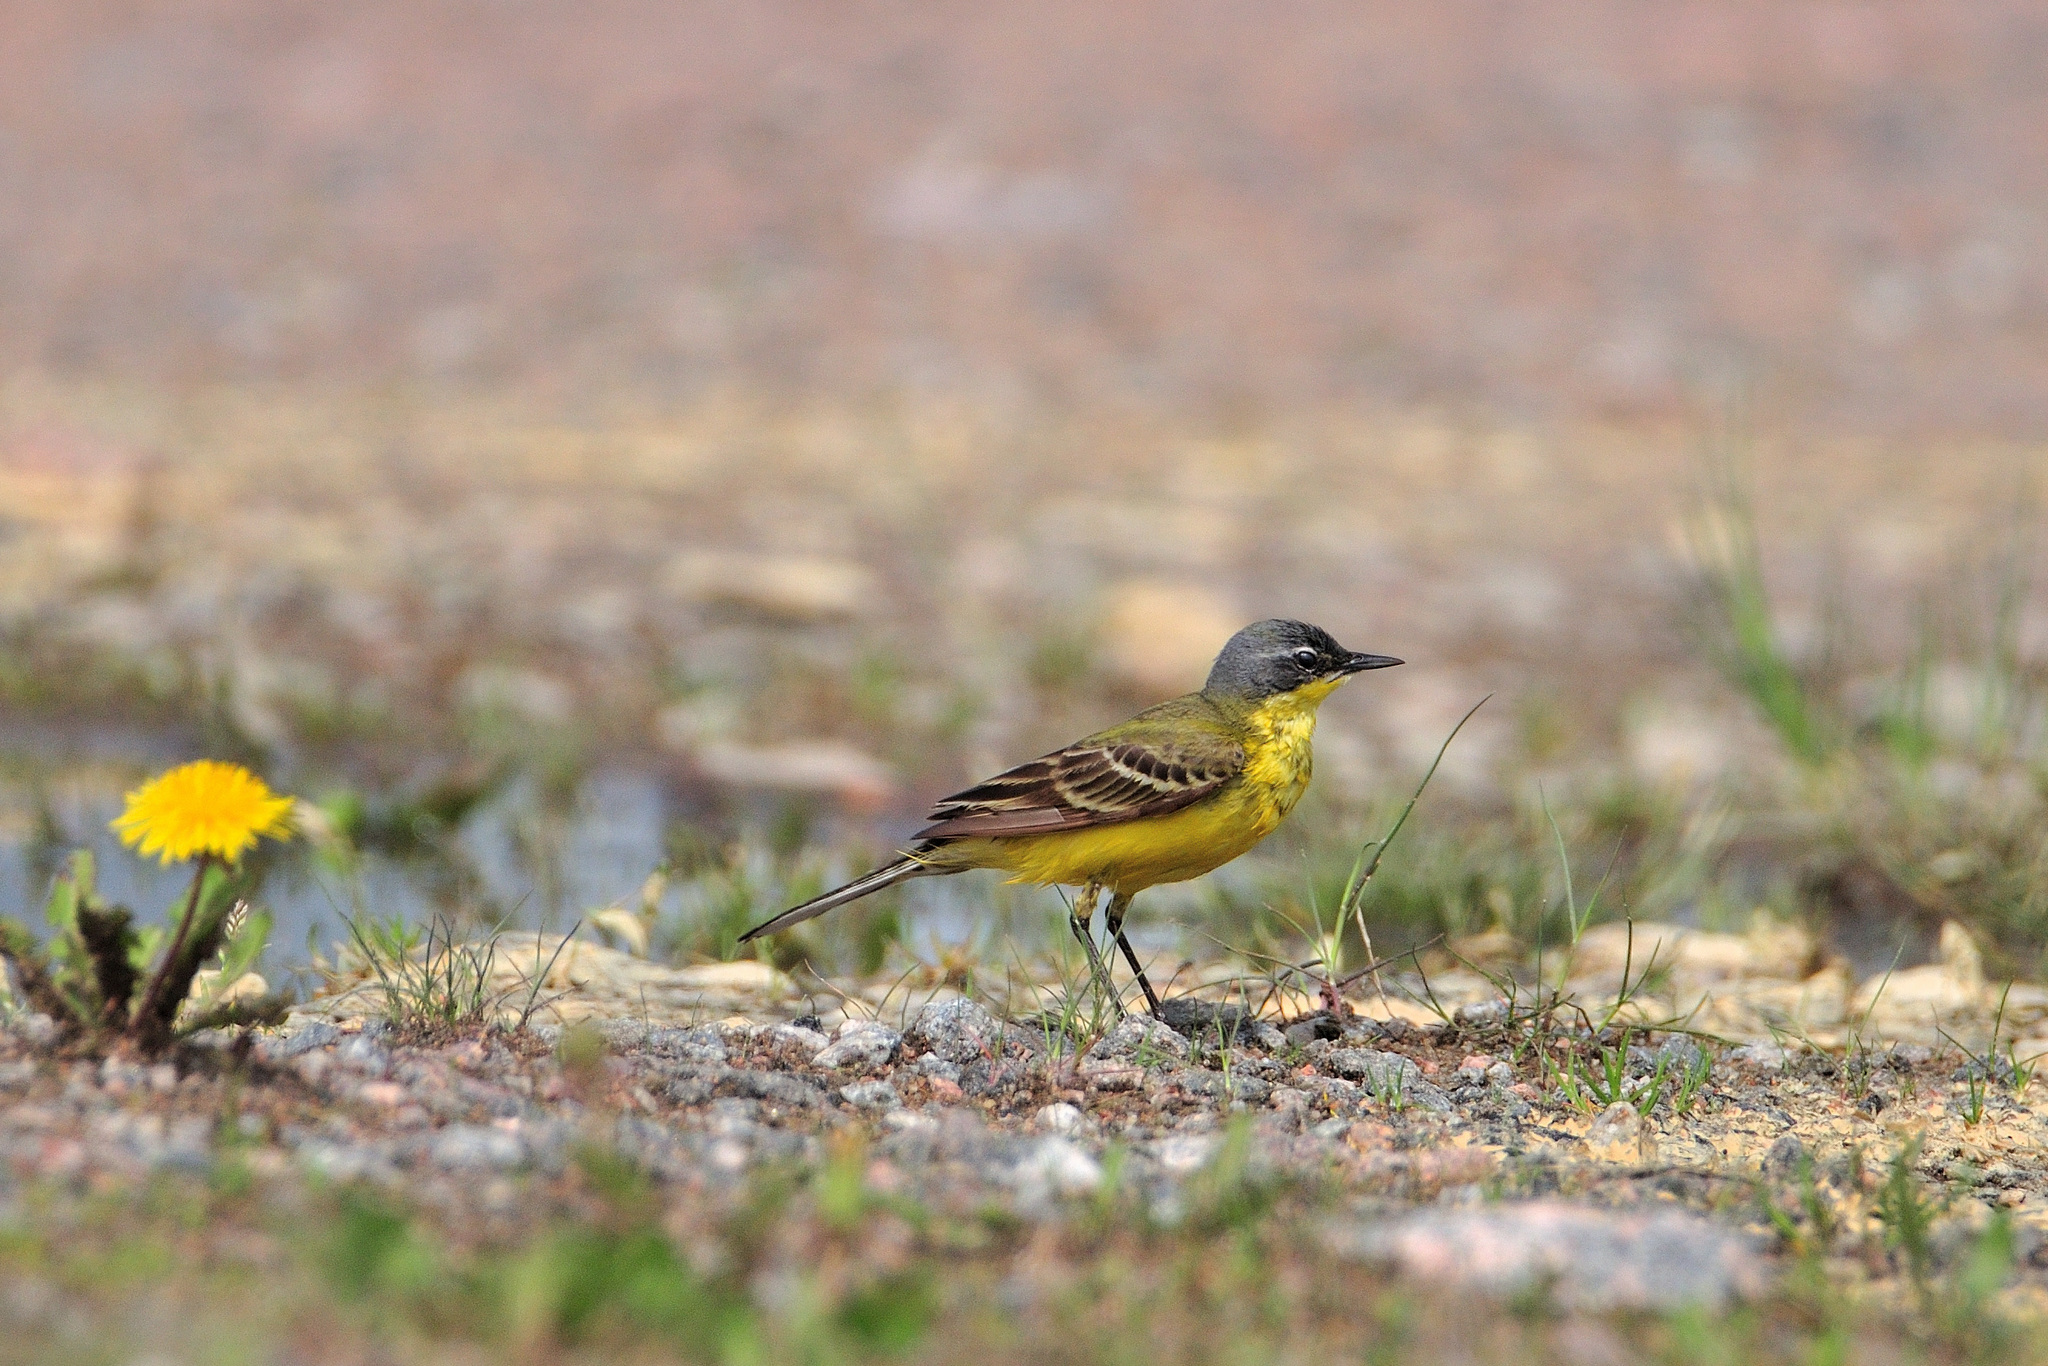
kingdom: Animalia
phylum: Chordata
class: Aves
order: Passeriformes
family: Motacillidae
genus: Motacilla
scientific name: Motacilla flava
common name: Western yellow wagtail
